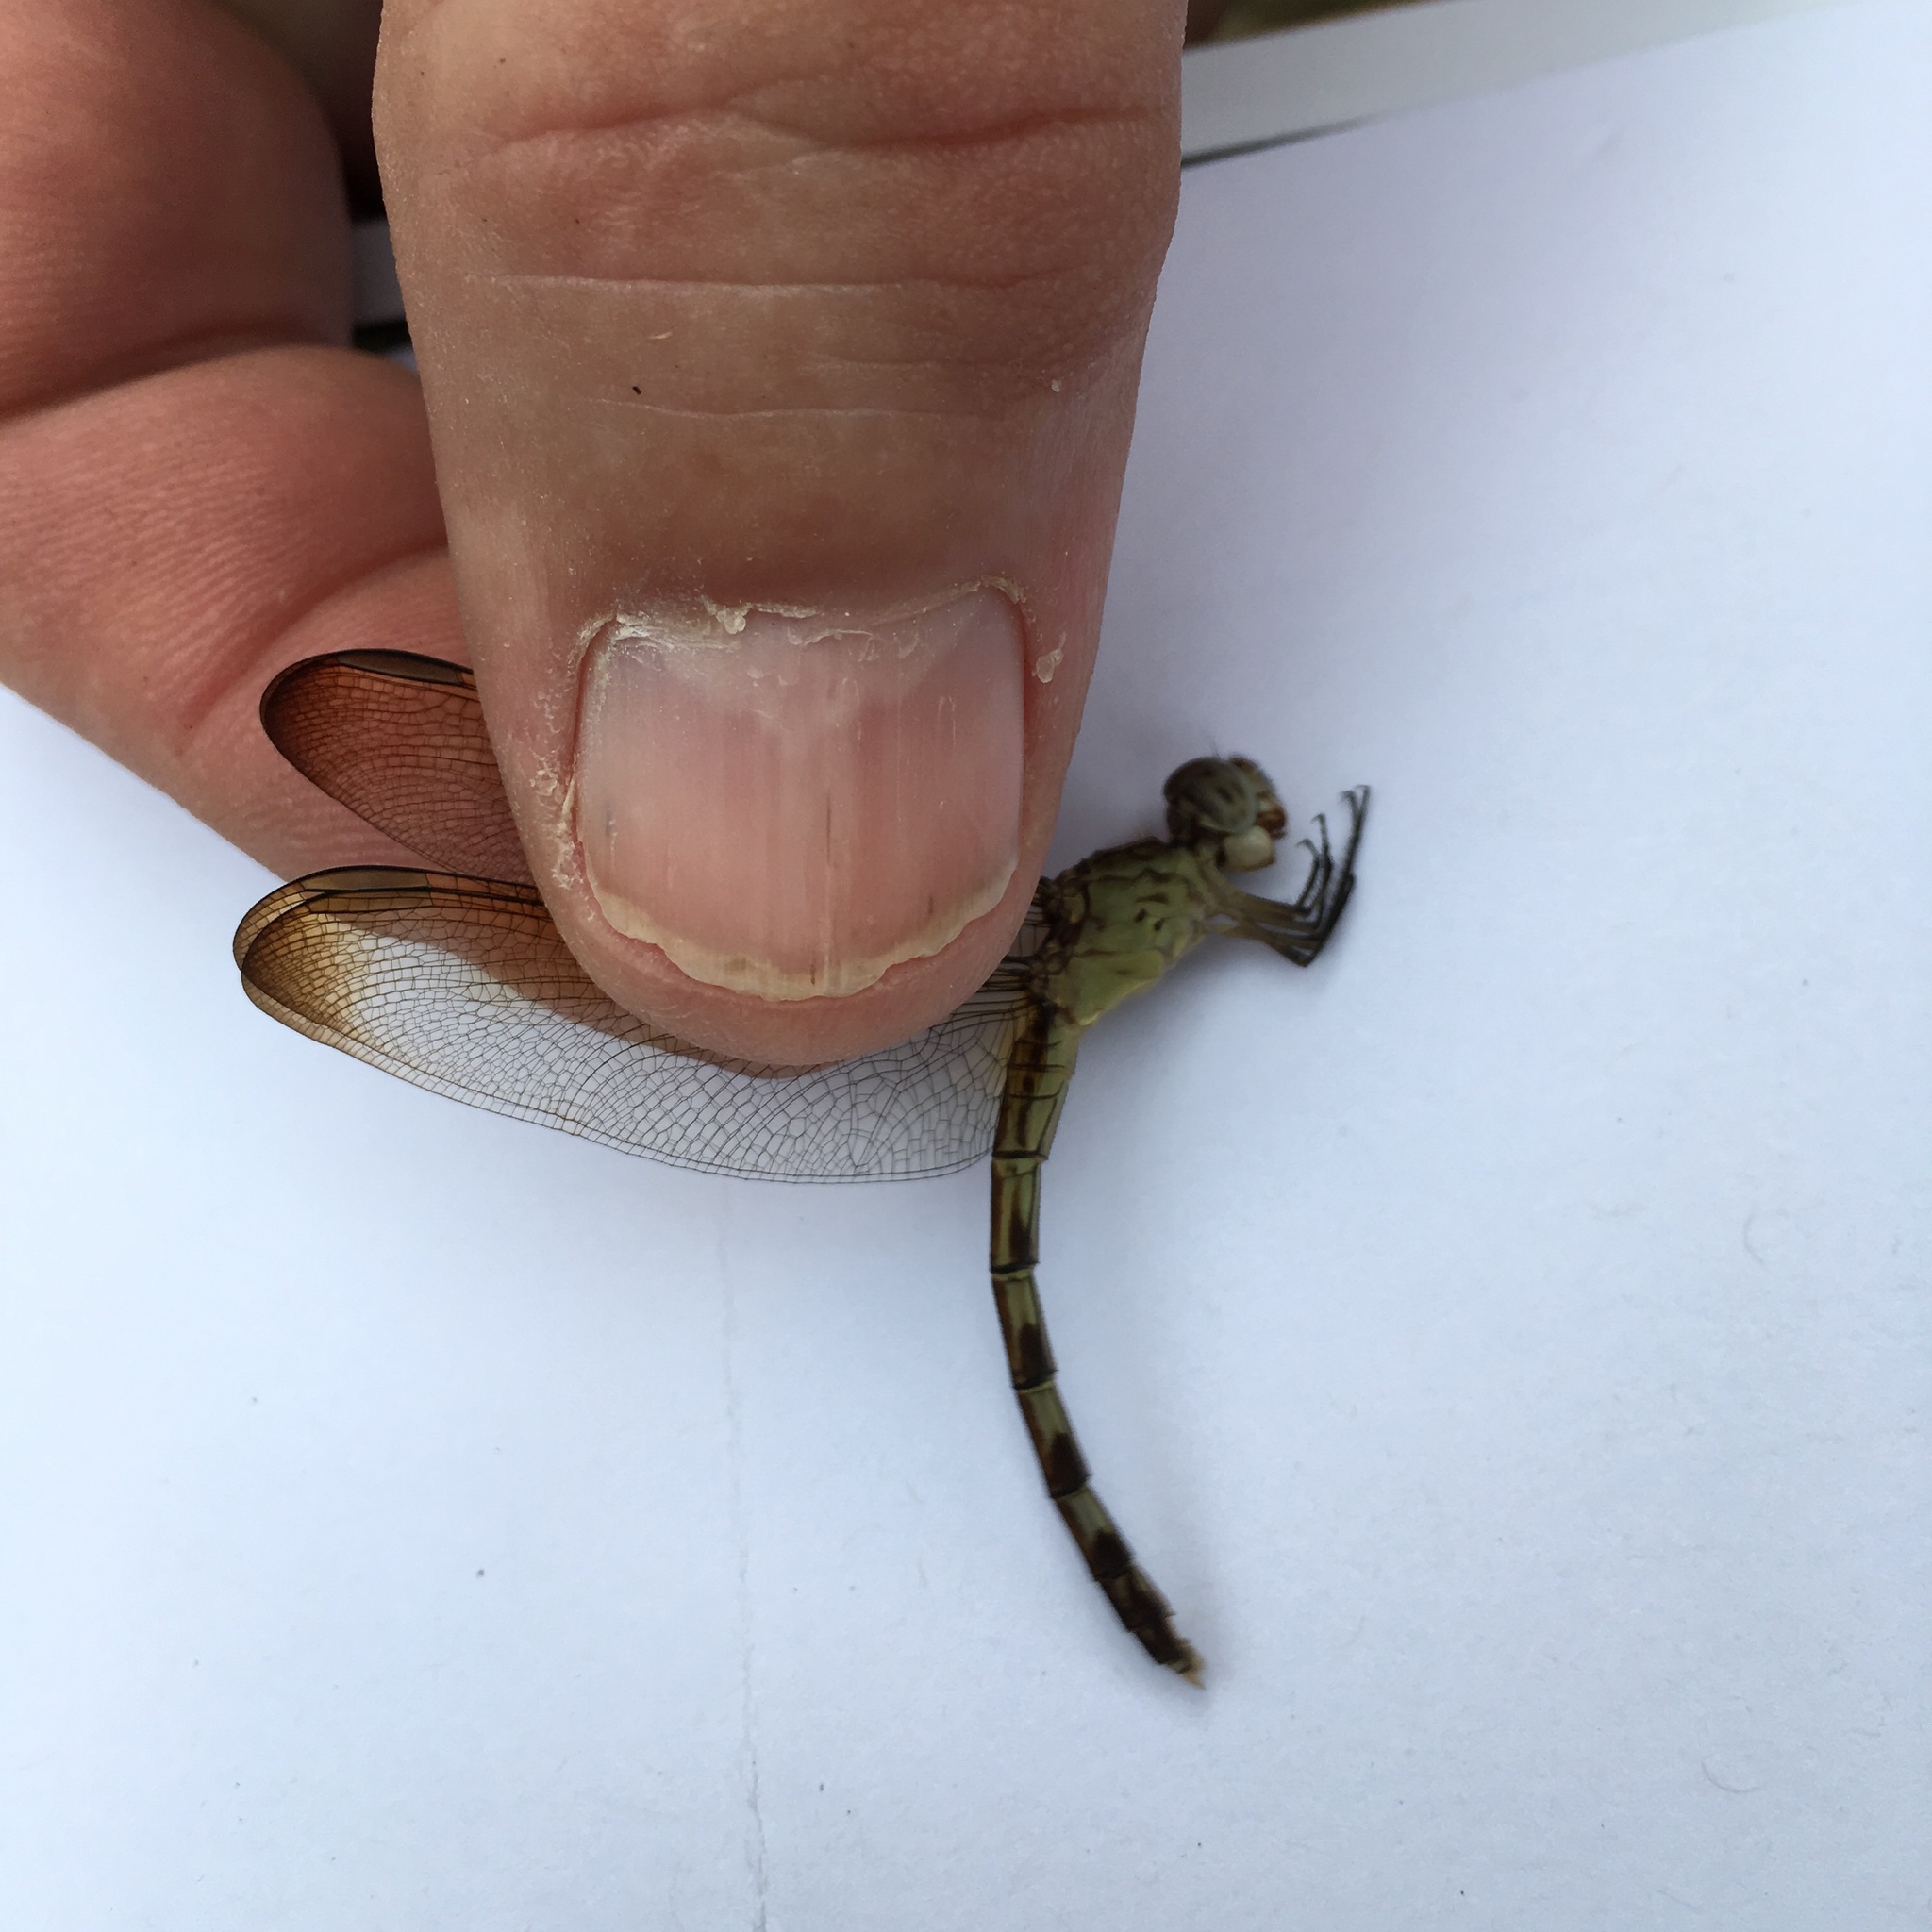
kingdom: Animalia
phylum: Arthropoda
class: Insecta
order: Odonata
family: Libellulidae
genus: Erythrodiplax
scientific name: Erythrodiplax umbrata
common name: Band-winged dragonlet
